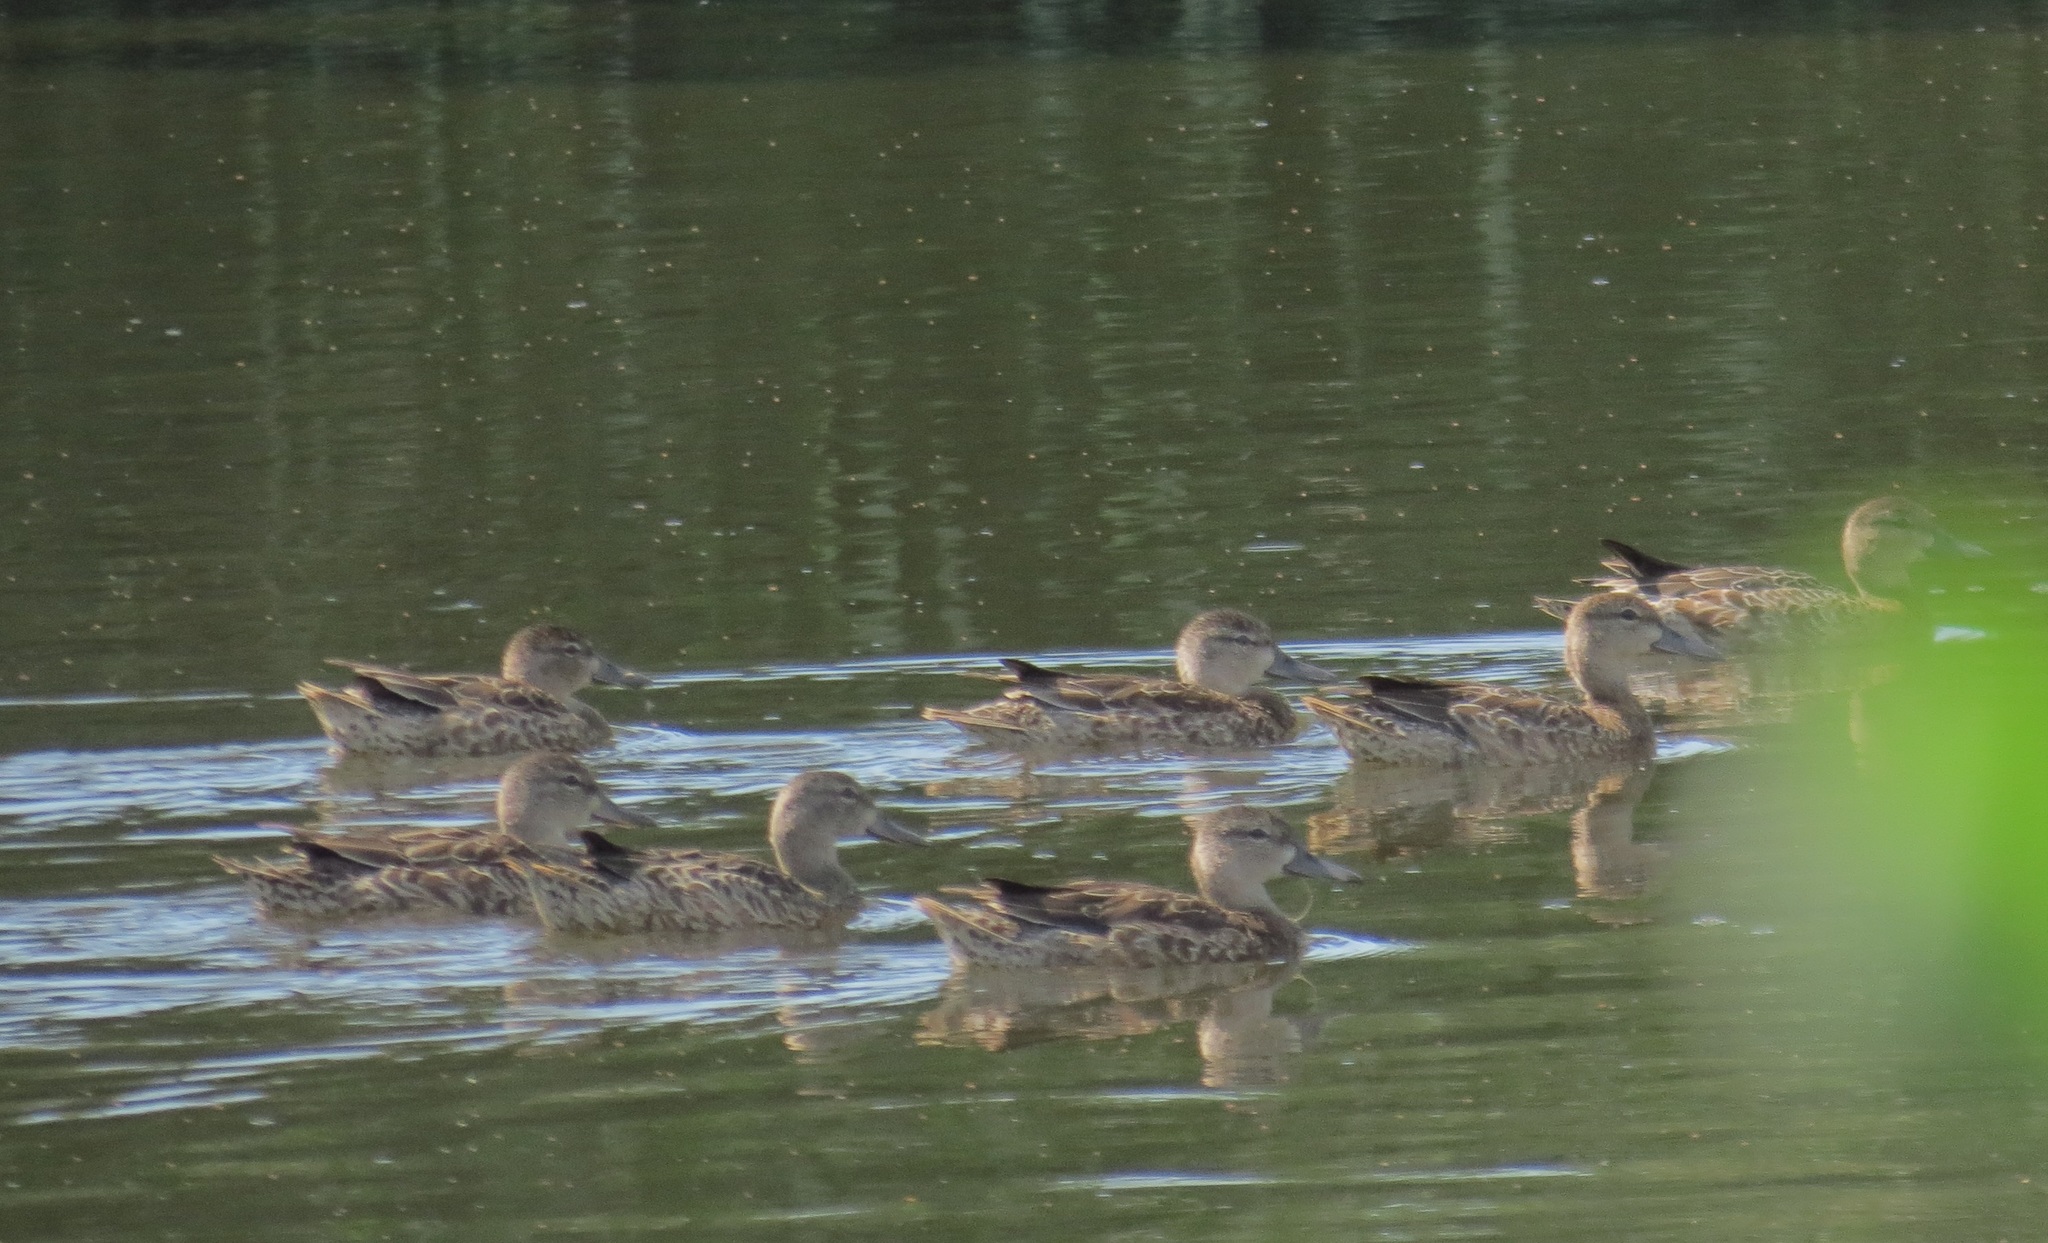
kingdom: Animalia
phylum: Chordata
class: Aves
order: Anseriformes
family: Anatidae
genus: Spatula
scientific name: Spatula discors
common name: Blue-winged teal
